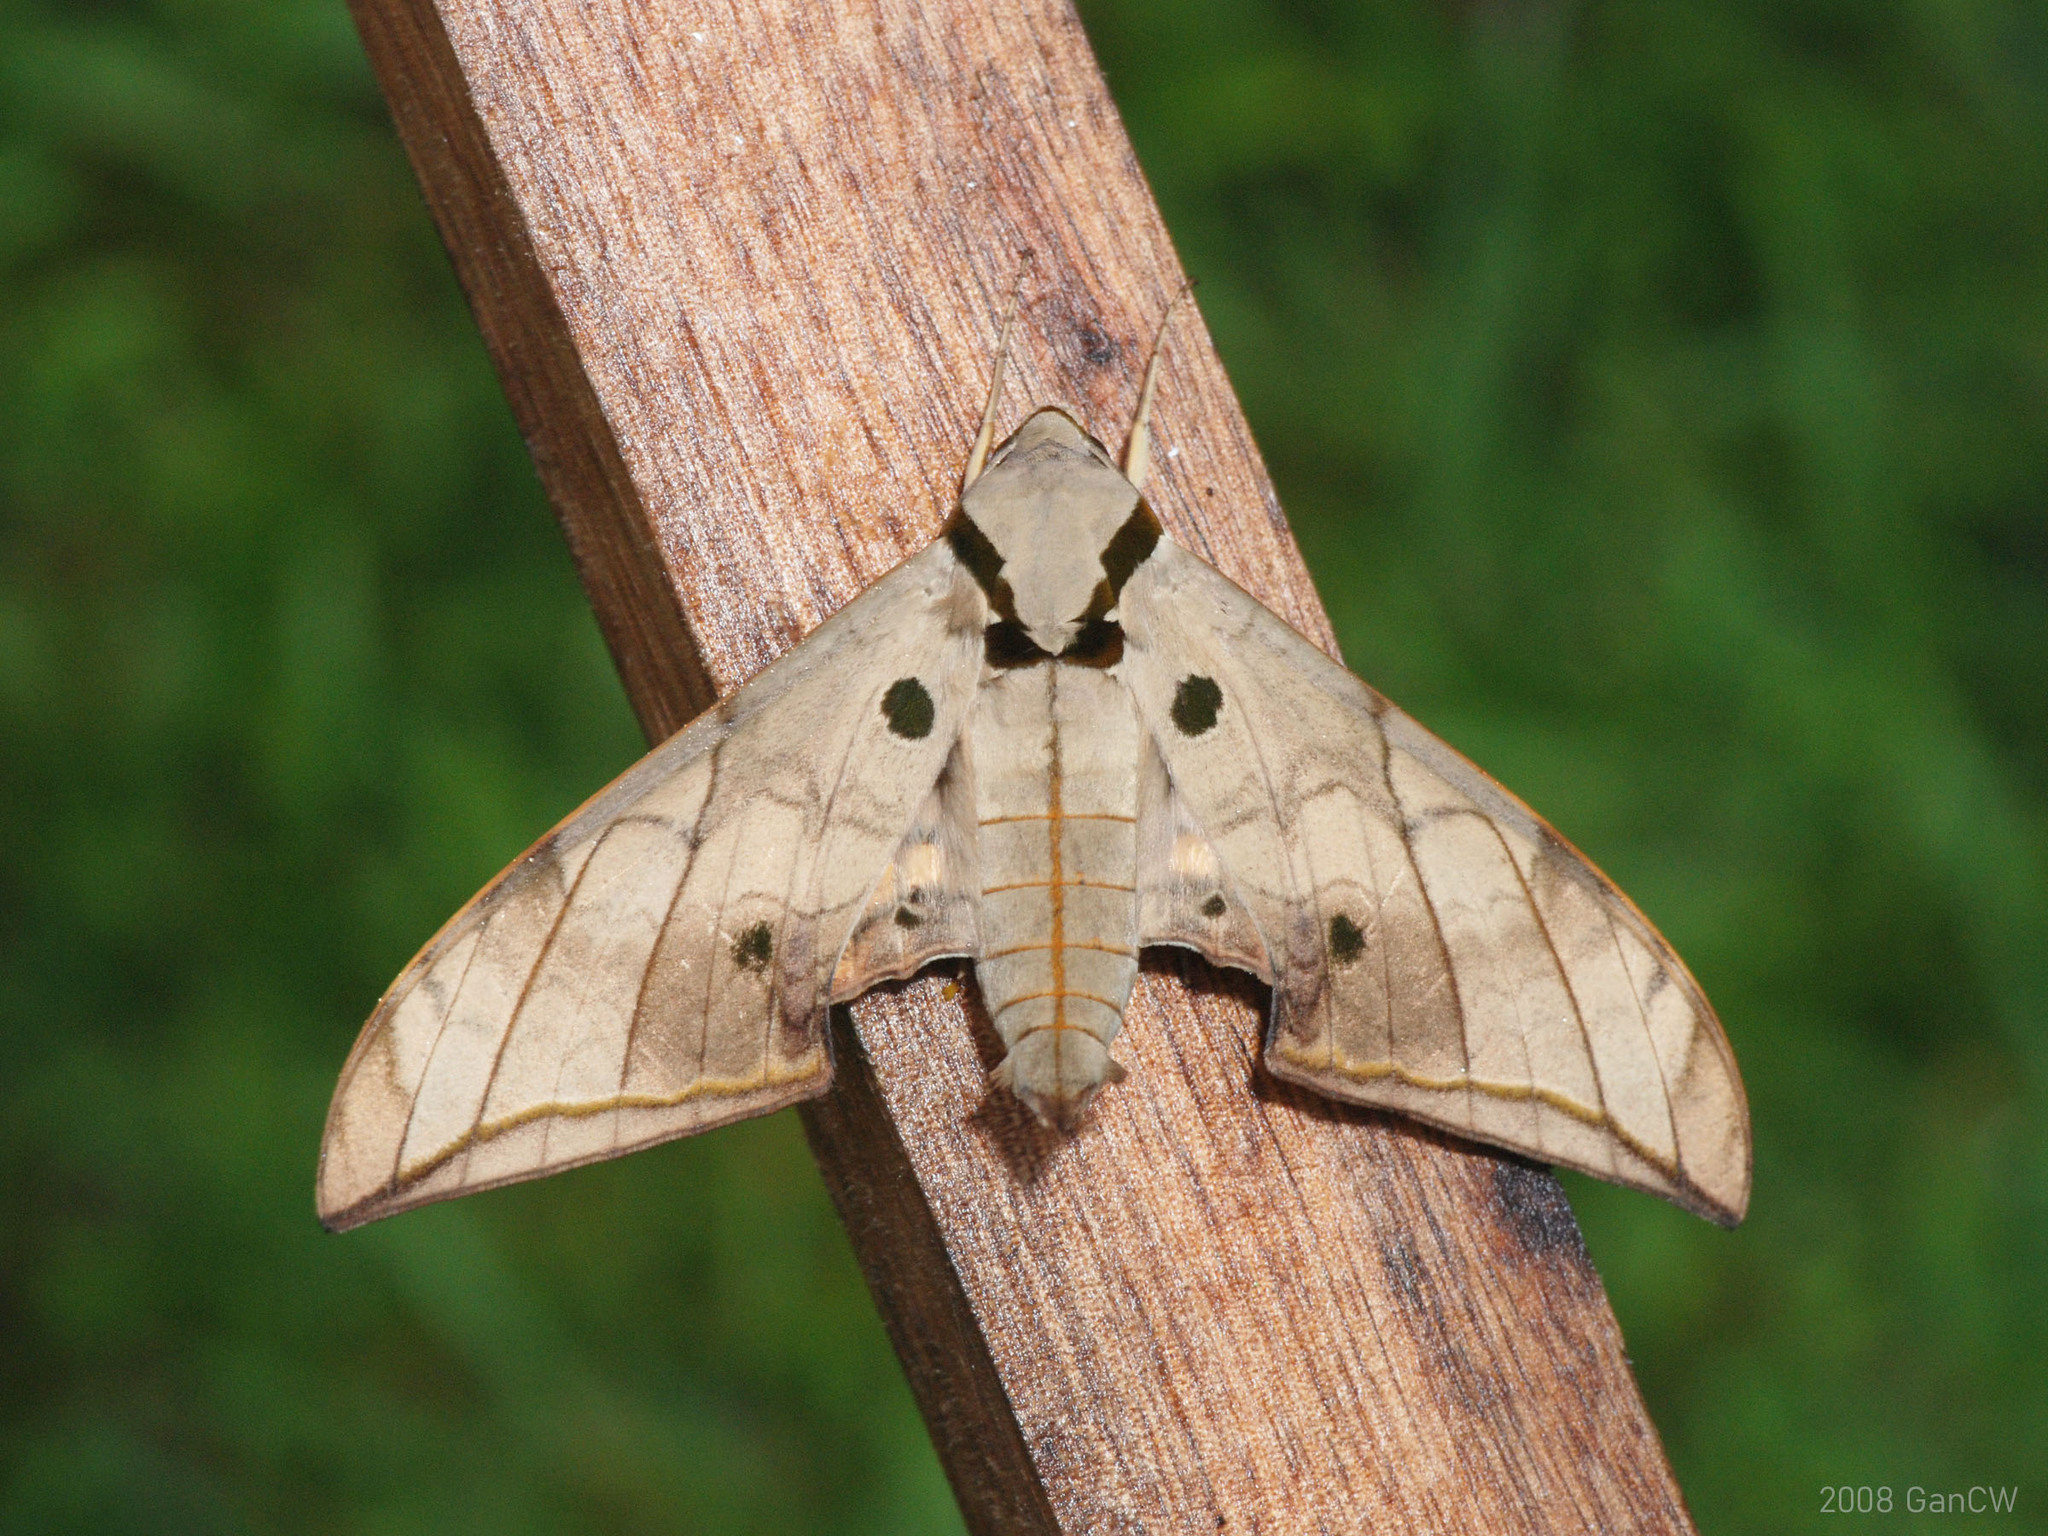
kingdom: Animalia
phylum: Arthropoda
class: Insecta
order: Lepidoptera
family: Sphingidae
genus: Ambulyx
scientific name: Ambulyx substrigilis
